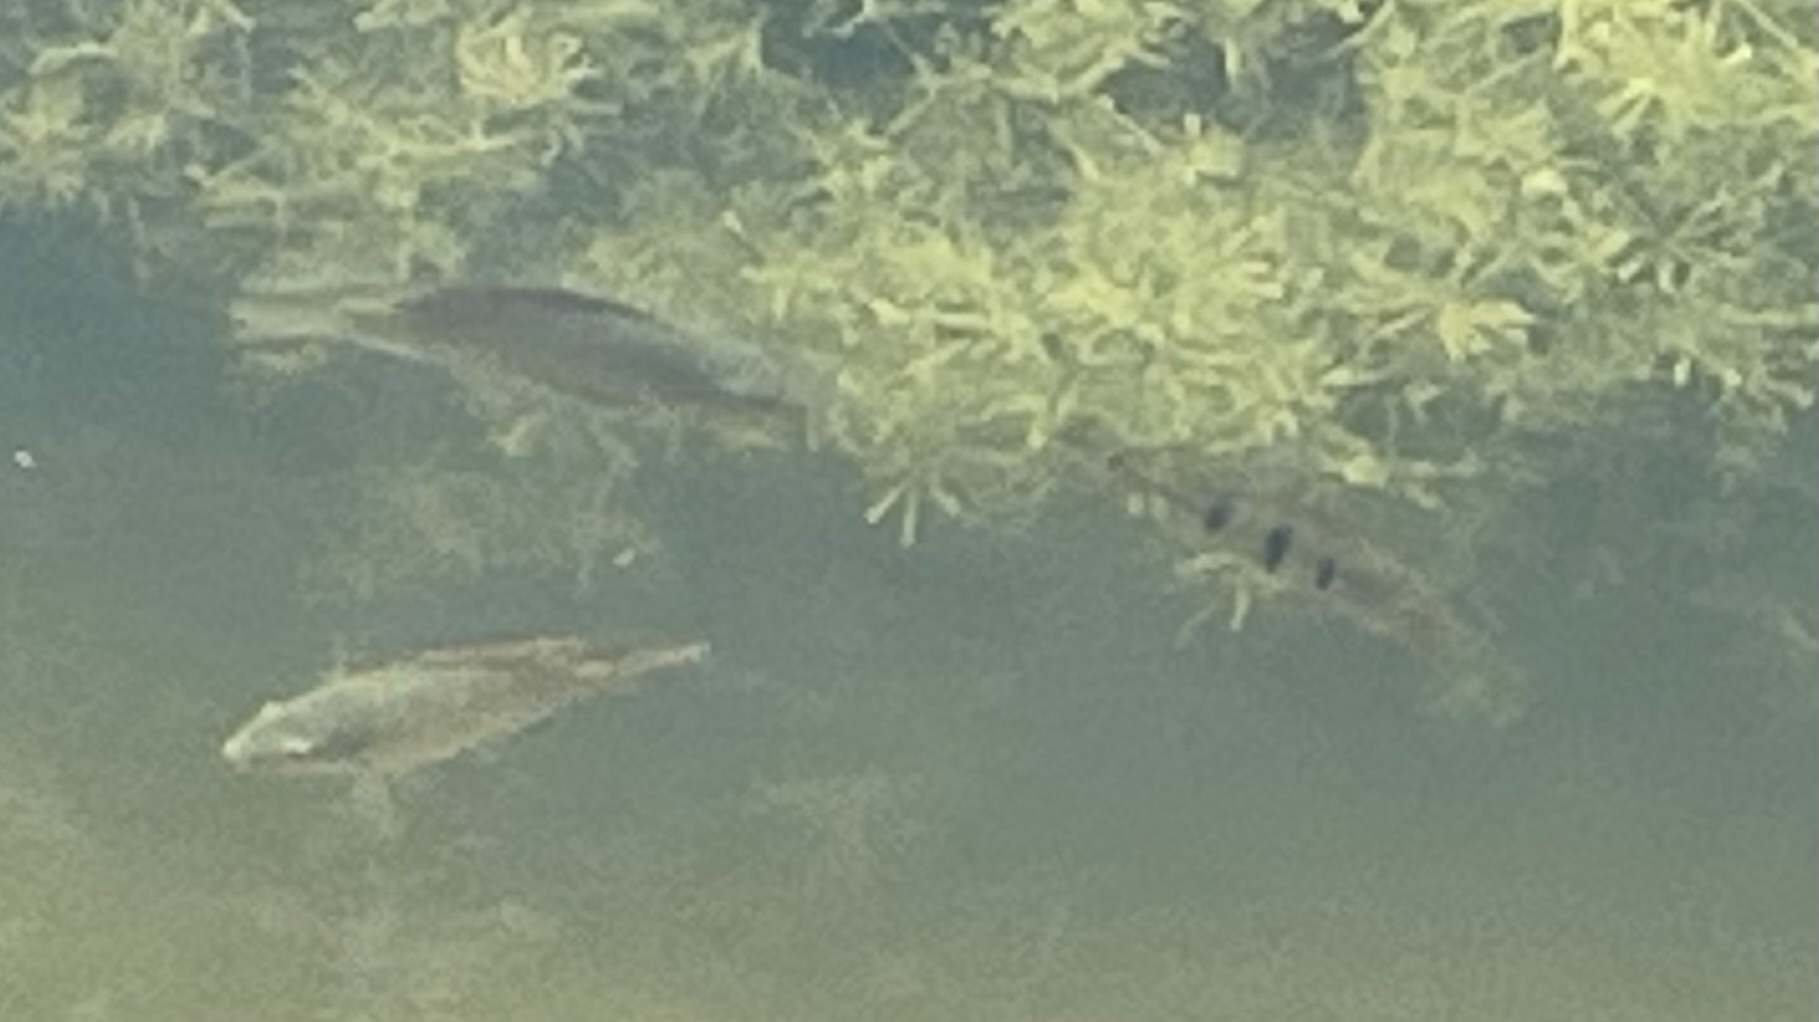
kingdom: Animalia
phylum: Chordata
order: Perciformes
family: Cichlidae
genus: Cichla
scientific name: Cichla ocellaris
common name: Peacock cichlid
